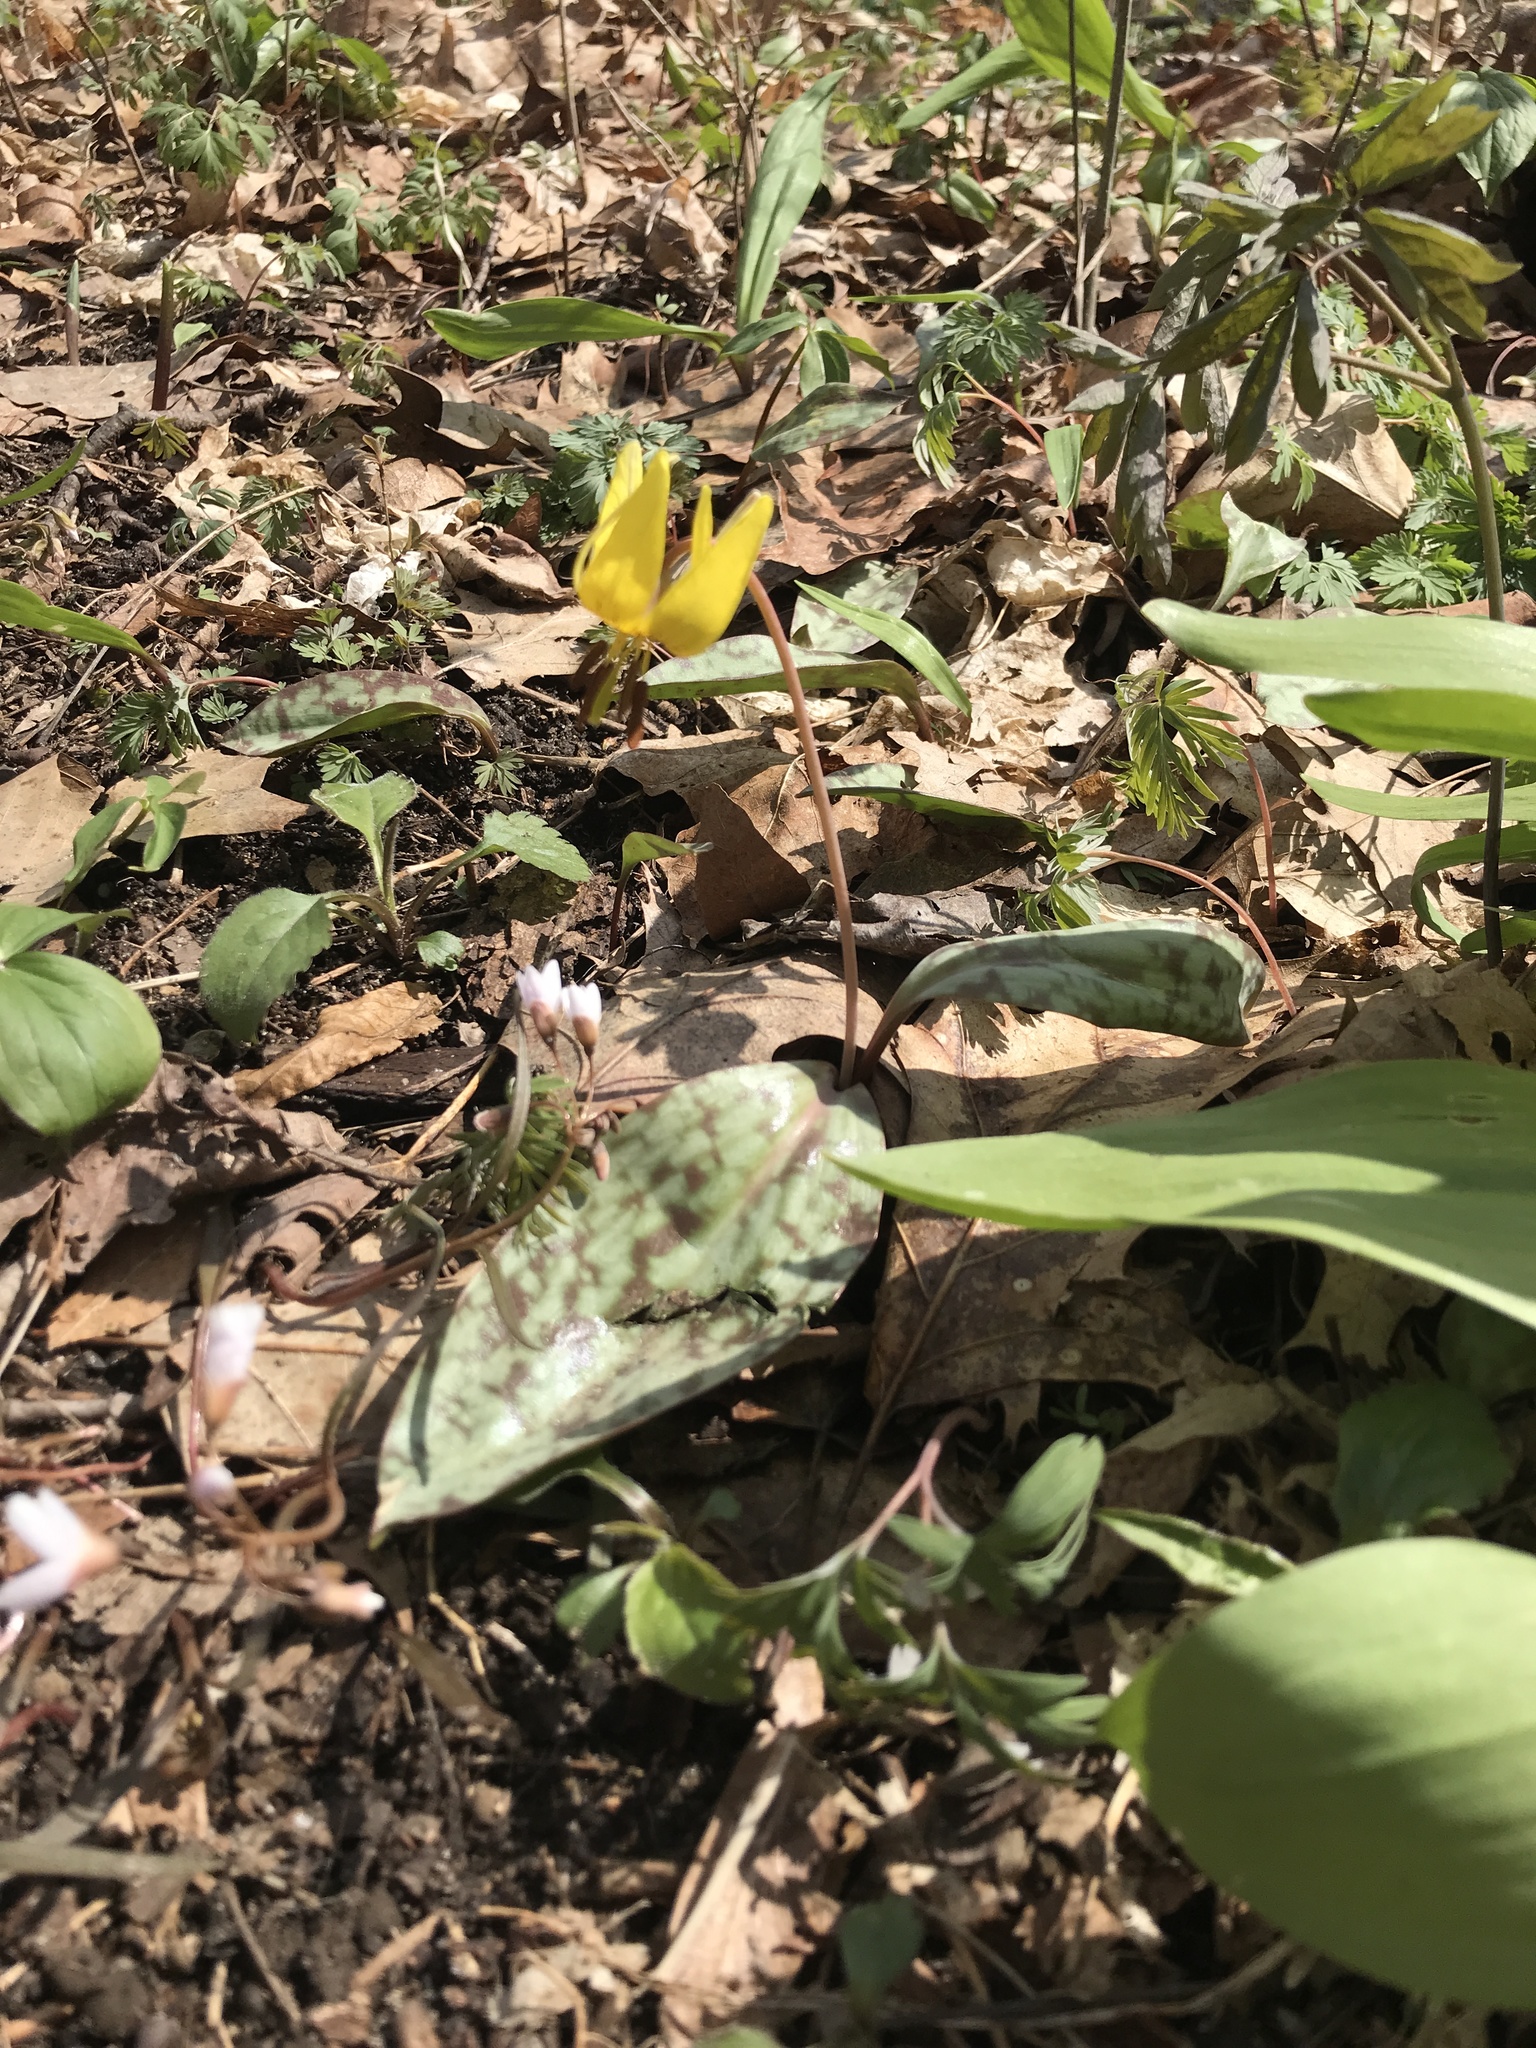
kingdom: Plantae
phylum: Tracheophyta
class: Liliopsida
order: Liliales
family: Liliaceae
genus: Erythronium
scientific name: Erythronium americanum
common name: Yellow adder's-tongue
